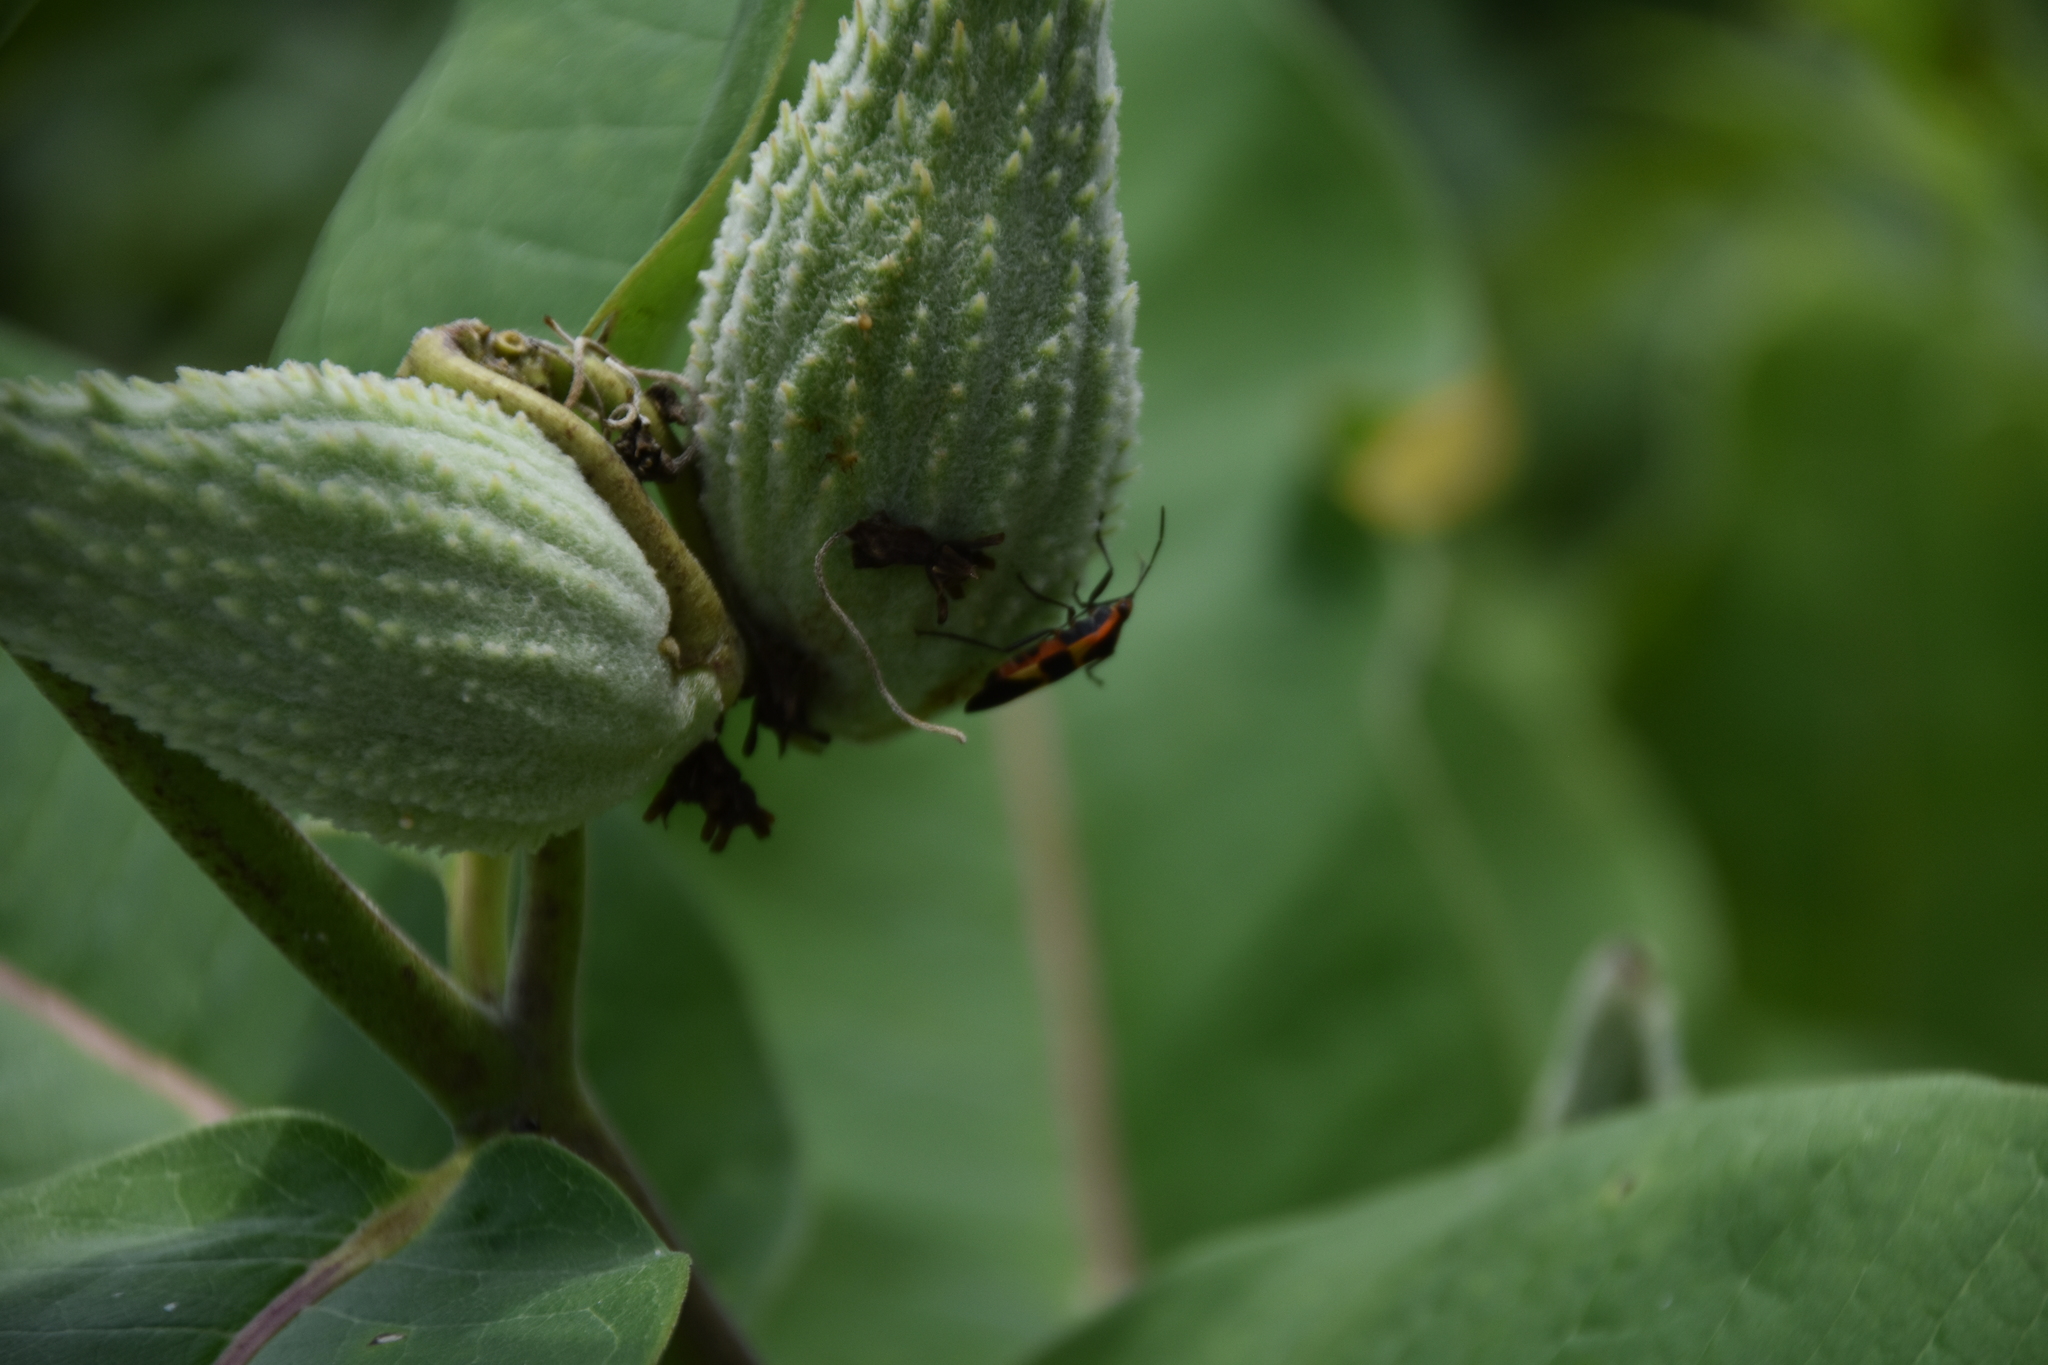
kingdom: Animalia
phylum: Arthropoda
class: Insecta
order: Hemiptera
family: Lygaeidae
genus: Oncopeltus
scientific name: Oncopeltus fasciatus
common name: Large milkweed bug
